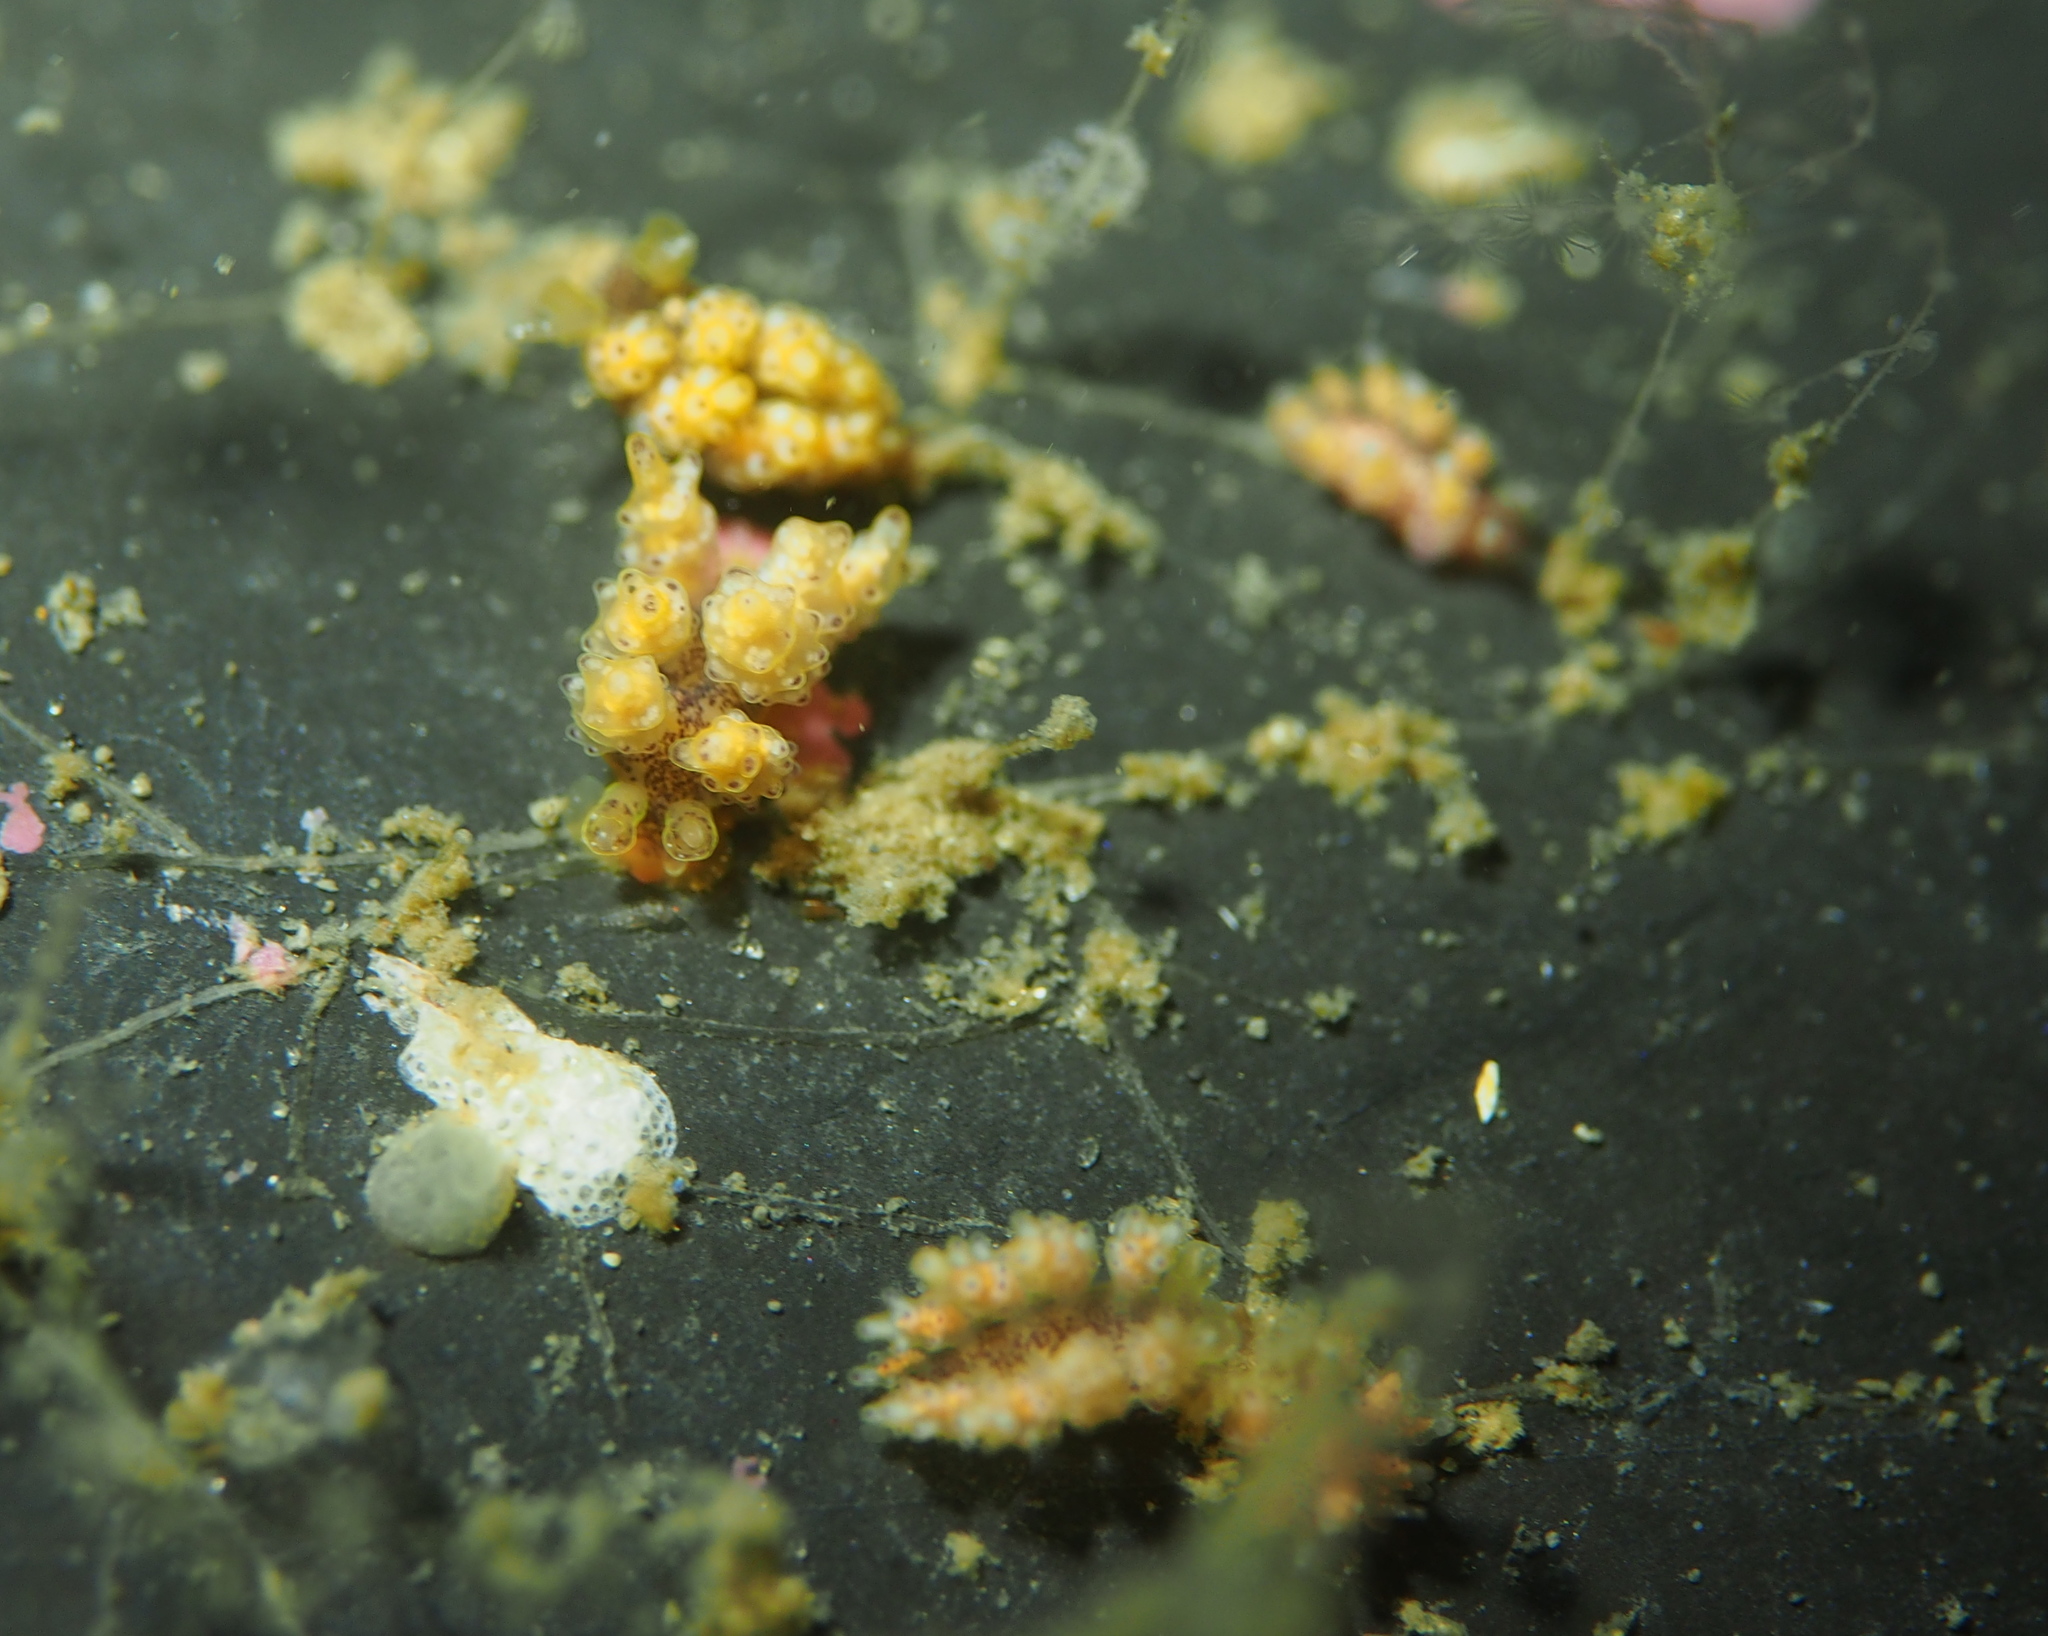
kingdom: Animalia
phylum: Mollusca
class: Gastropoda
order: Nudibranchia
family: Dotidae
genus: Doto
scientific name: Doto maculata
